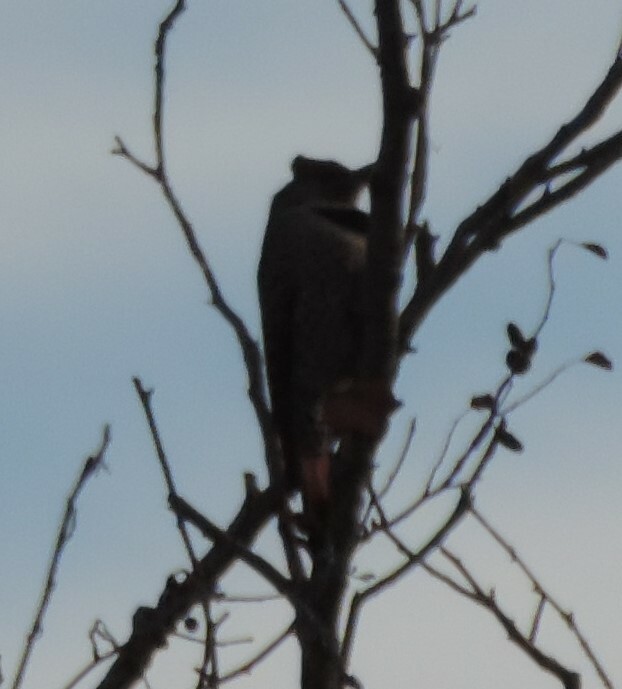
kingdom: Animalia
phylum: Chordata
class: Aves
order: Piciformes
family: Picidae
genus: Colaptes
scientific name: Colaptes auratus
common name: Northern flicker
